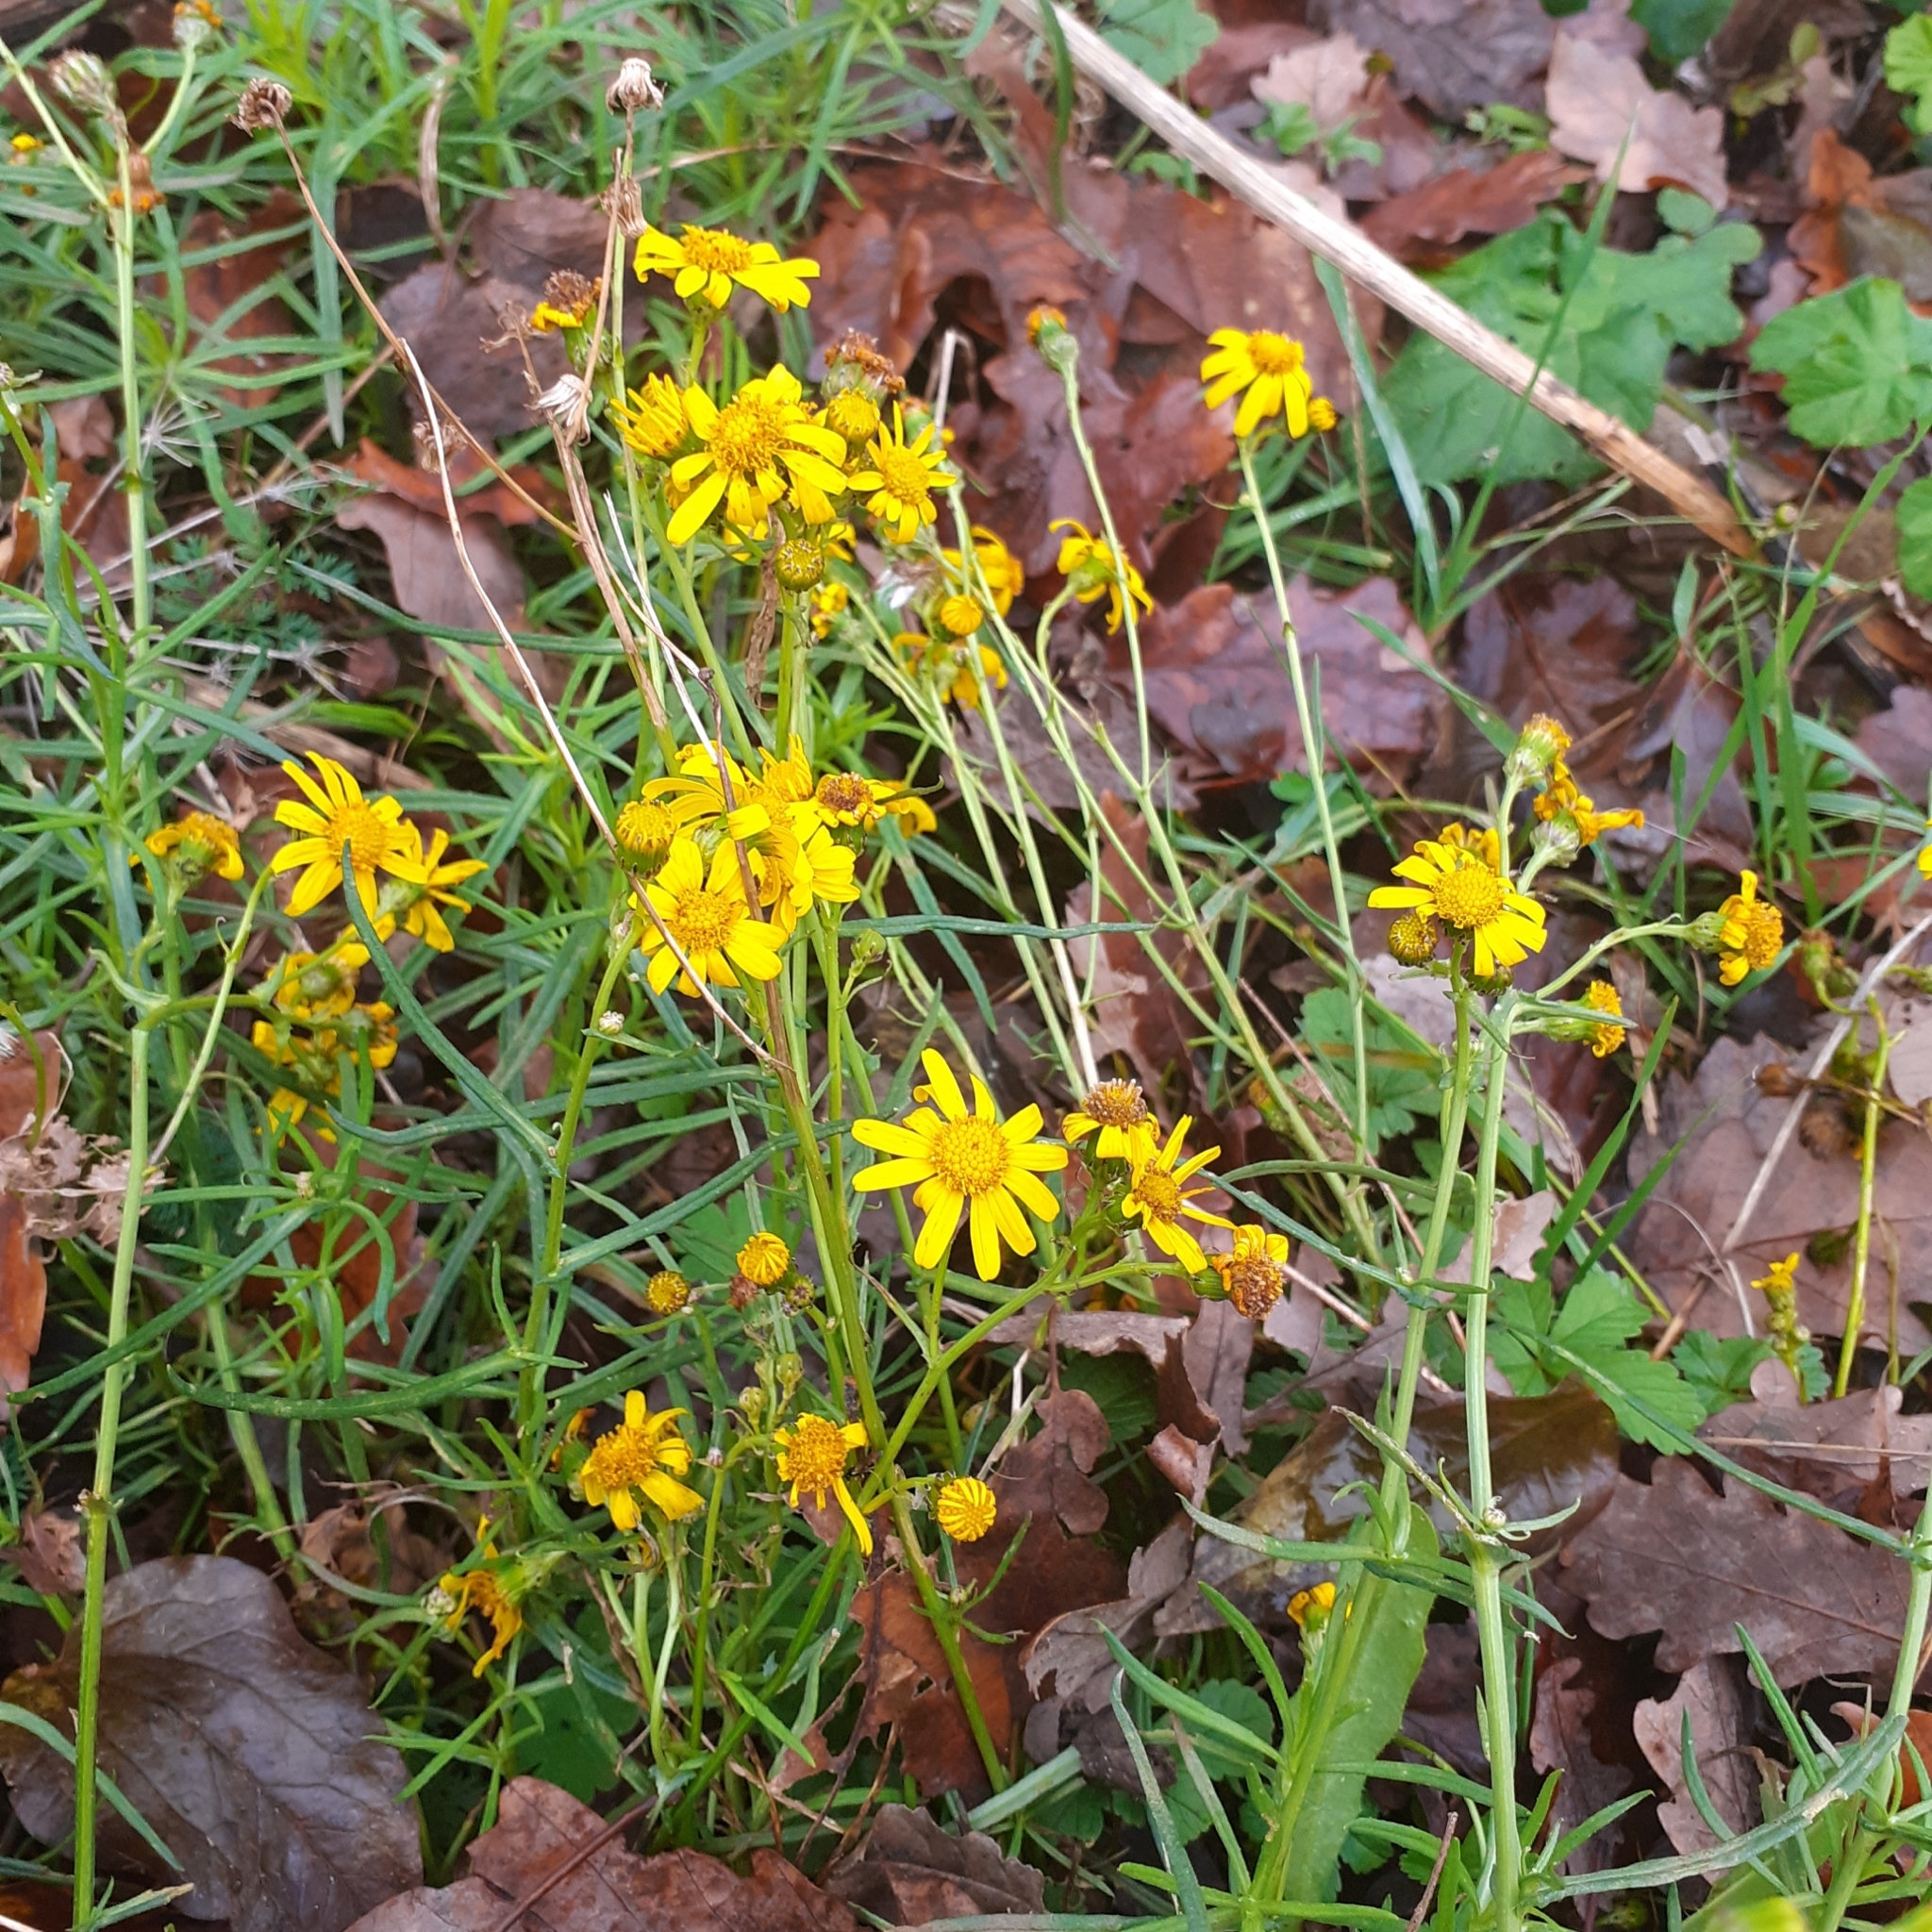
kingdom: Plantae
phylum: Tracheophyta
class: Magnoliopsida
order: Asterales
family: Asteraceae
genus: Senecio
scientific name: Senecio inaequidens
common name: Narrow-leaved ragwort
